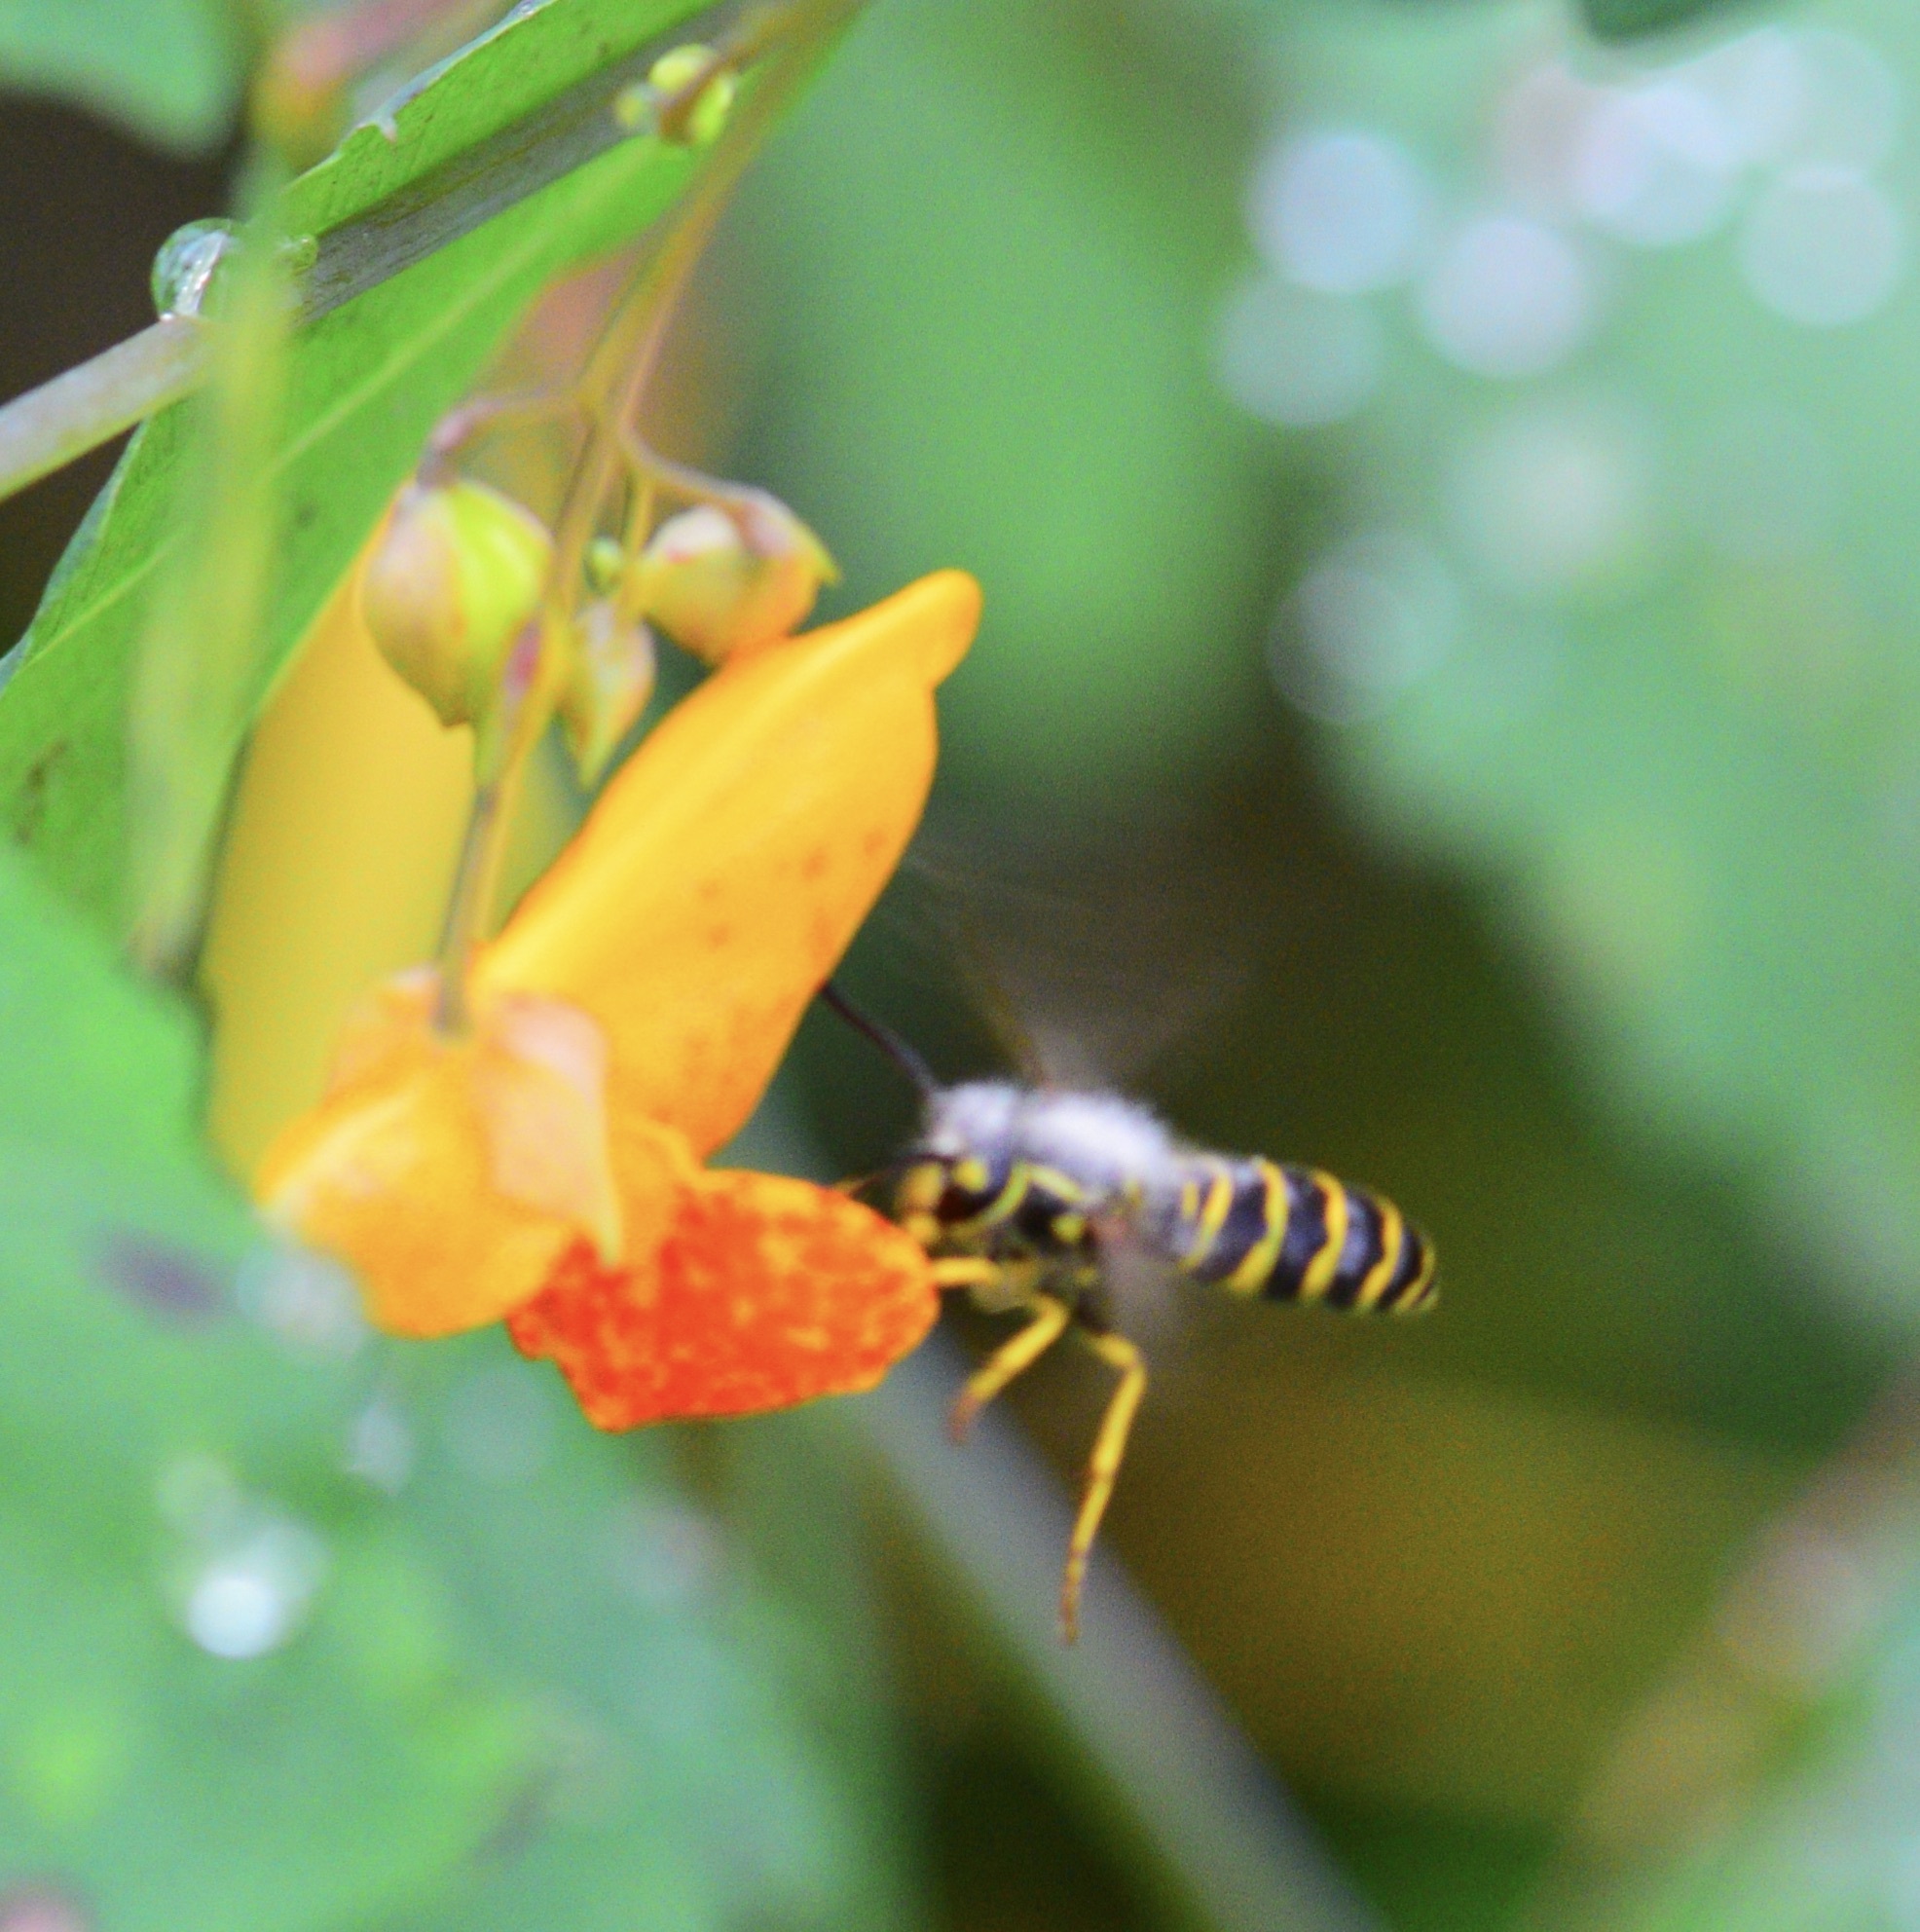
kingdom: Animalia
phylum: Arthropoda
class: Insecta
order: Hymenoptera
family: Vespidae
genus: Vespula
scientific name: Vespula maculifrons
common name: Eastern yellowjacket
